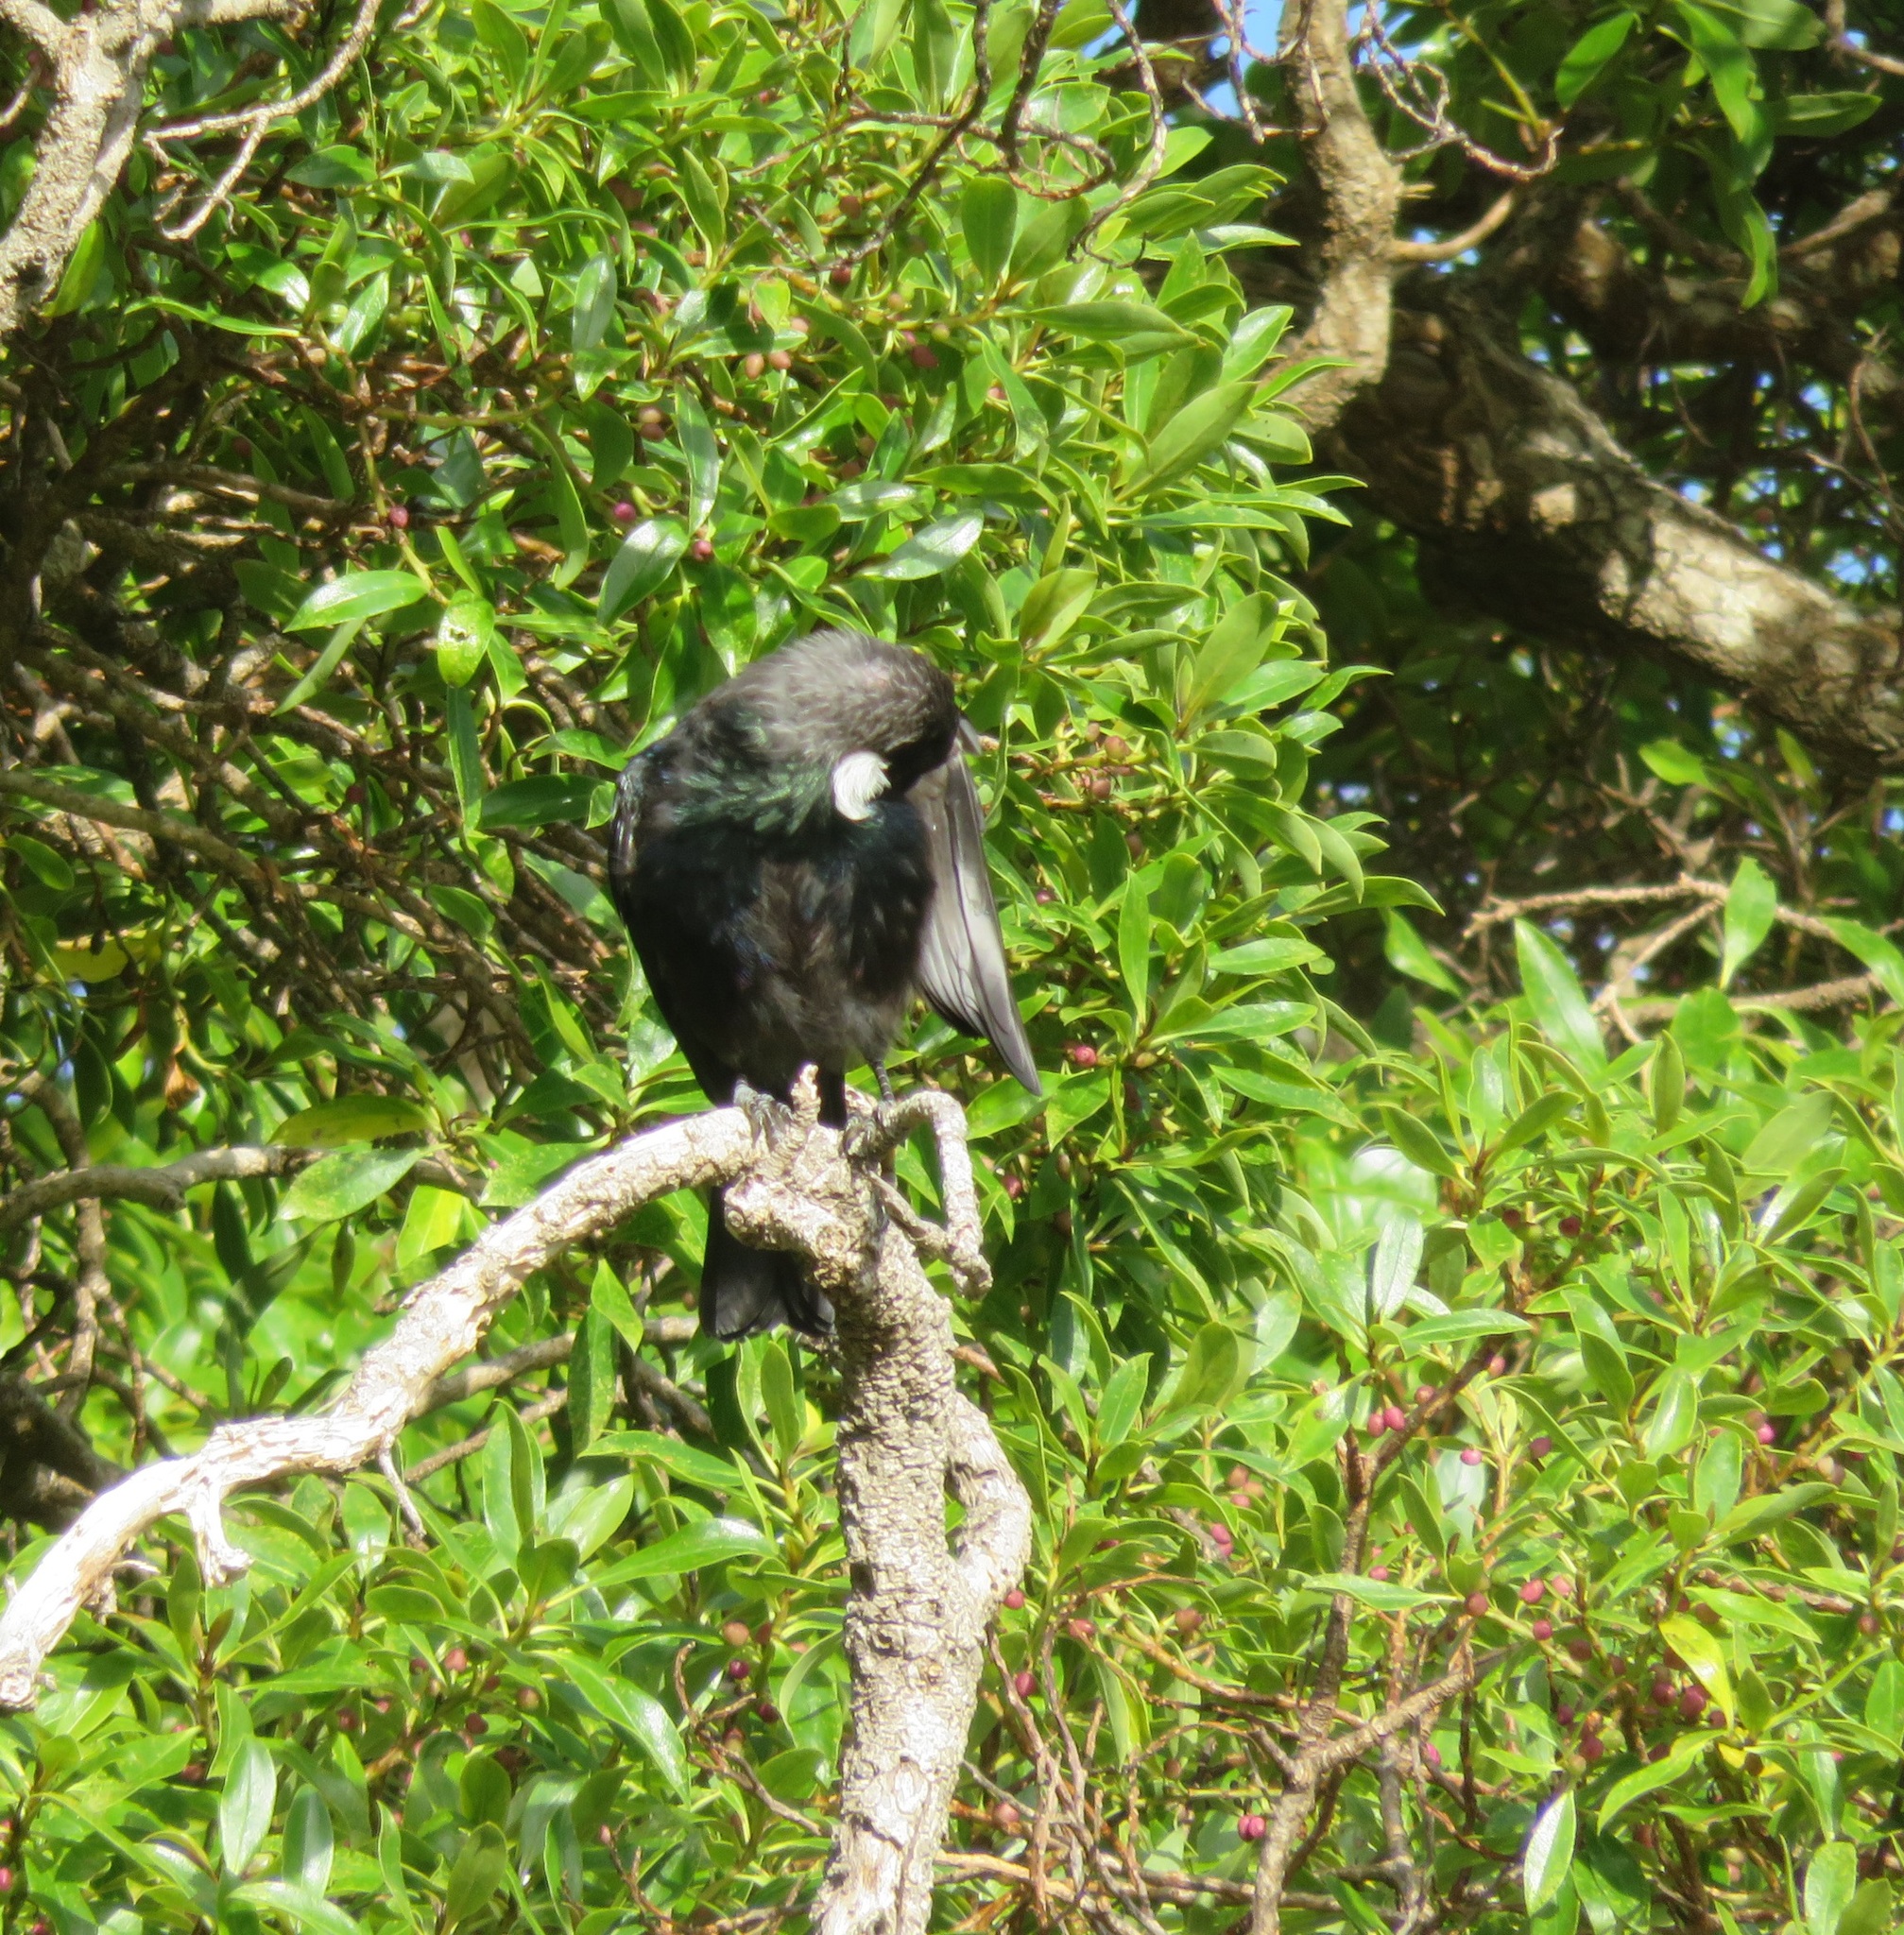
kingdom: Animalia
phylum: Chordata
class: Aves
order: Passeriformes
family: Meliphagidae
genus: Prosthemadera
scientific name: Prosthemadera novaeseelandiae
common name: Tui
